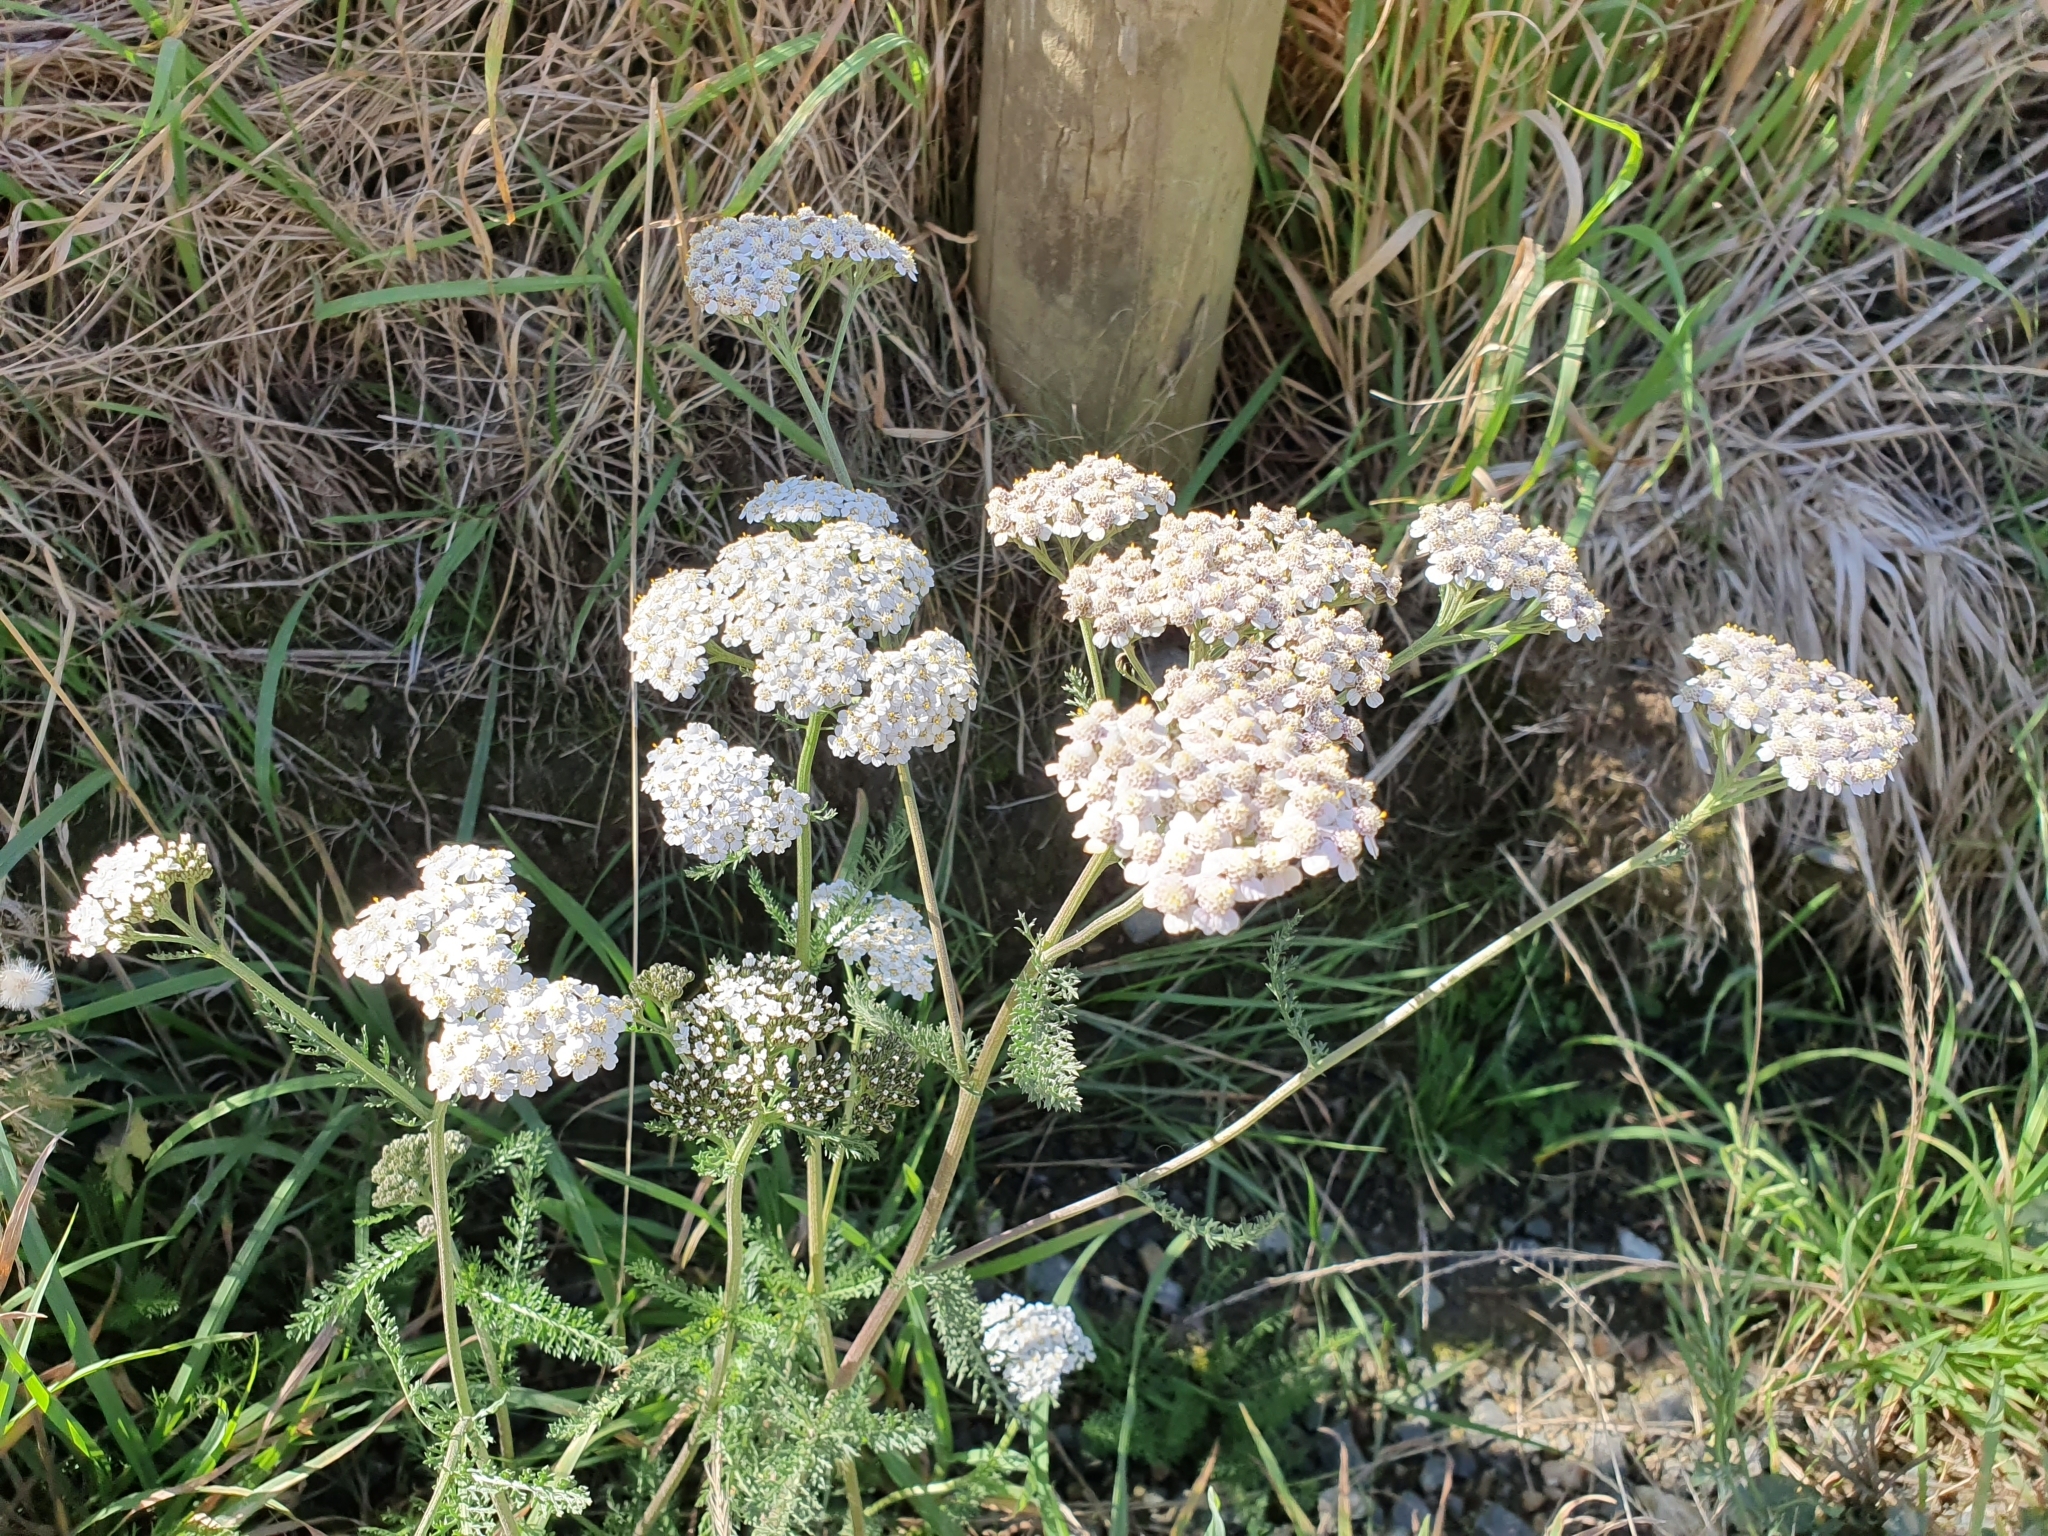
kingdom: Plantae
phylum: Tracheophyta
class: Magnoliopsida
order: Asterales
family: Asteraceae
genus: Achillea
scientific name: Achillea millefolium
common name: Yarrow
